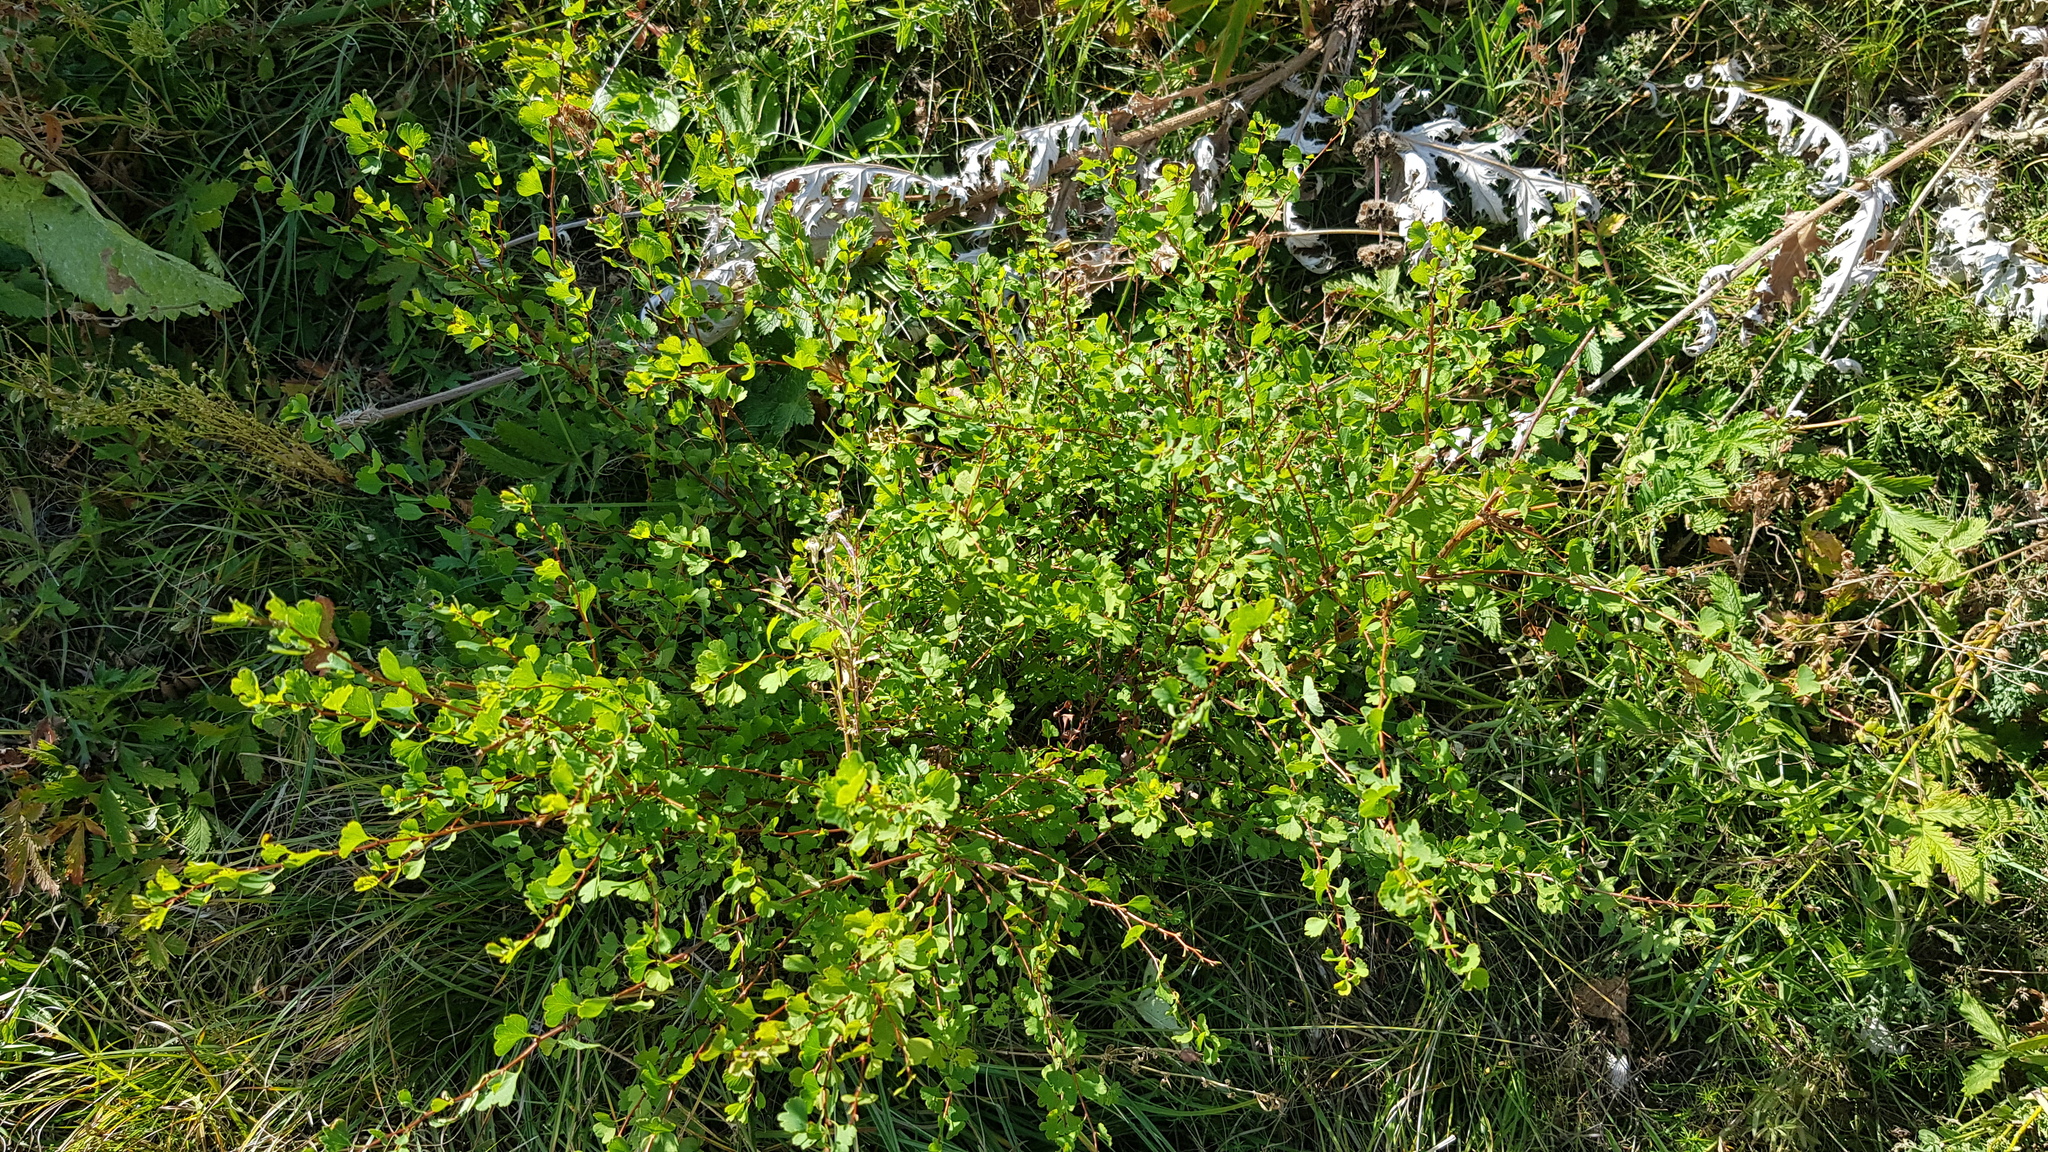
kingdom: Plantae
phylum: Tracheophyta
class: Magnoliopsida
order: Rosales
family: Rosaceae
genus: Spiraea
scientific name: Spiraea aquilegifolia
